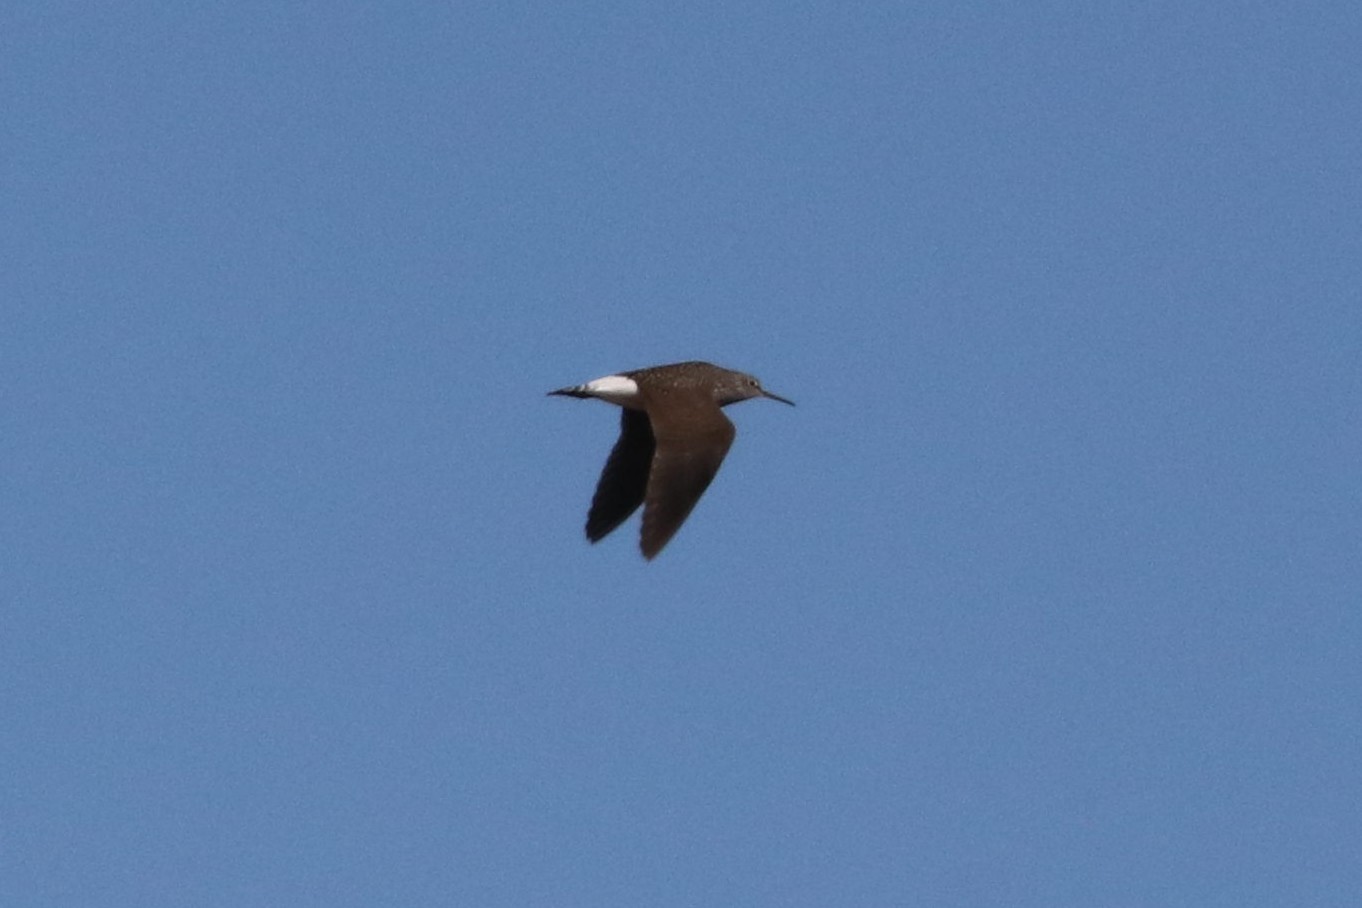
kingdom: Animalia
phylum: Chordata
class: Aves
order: Charadriiformes
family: Scolopacidae
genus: Tringa
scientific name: Tringa ochropus
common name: Green sandpiper
